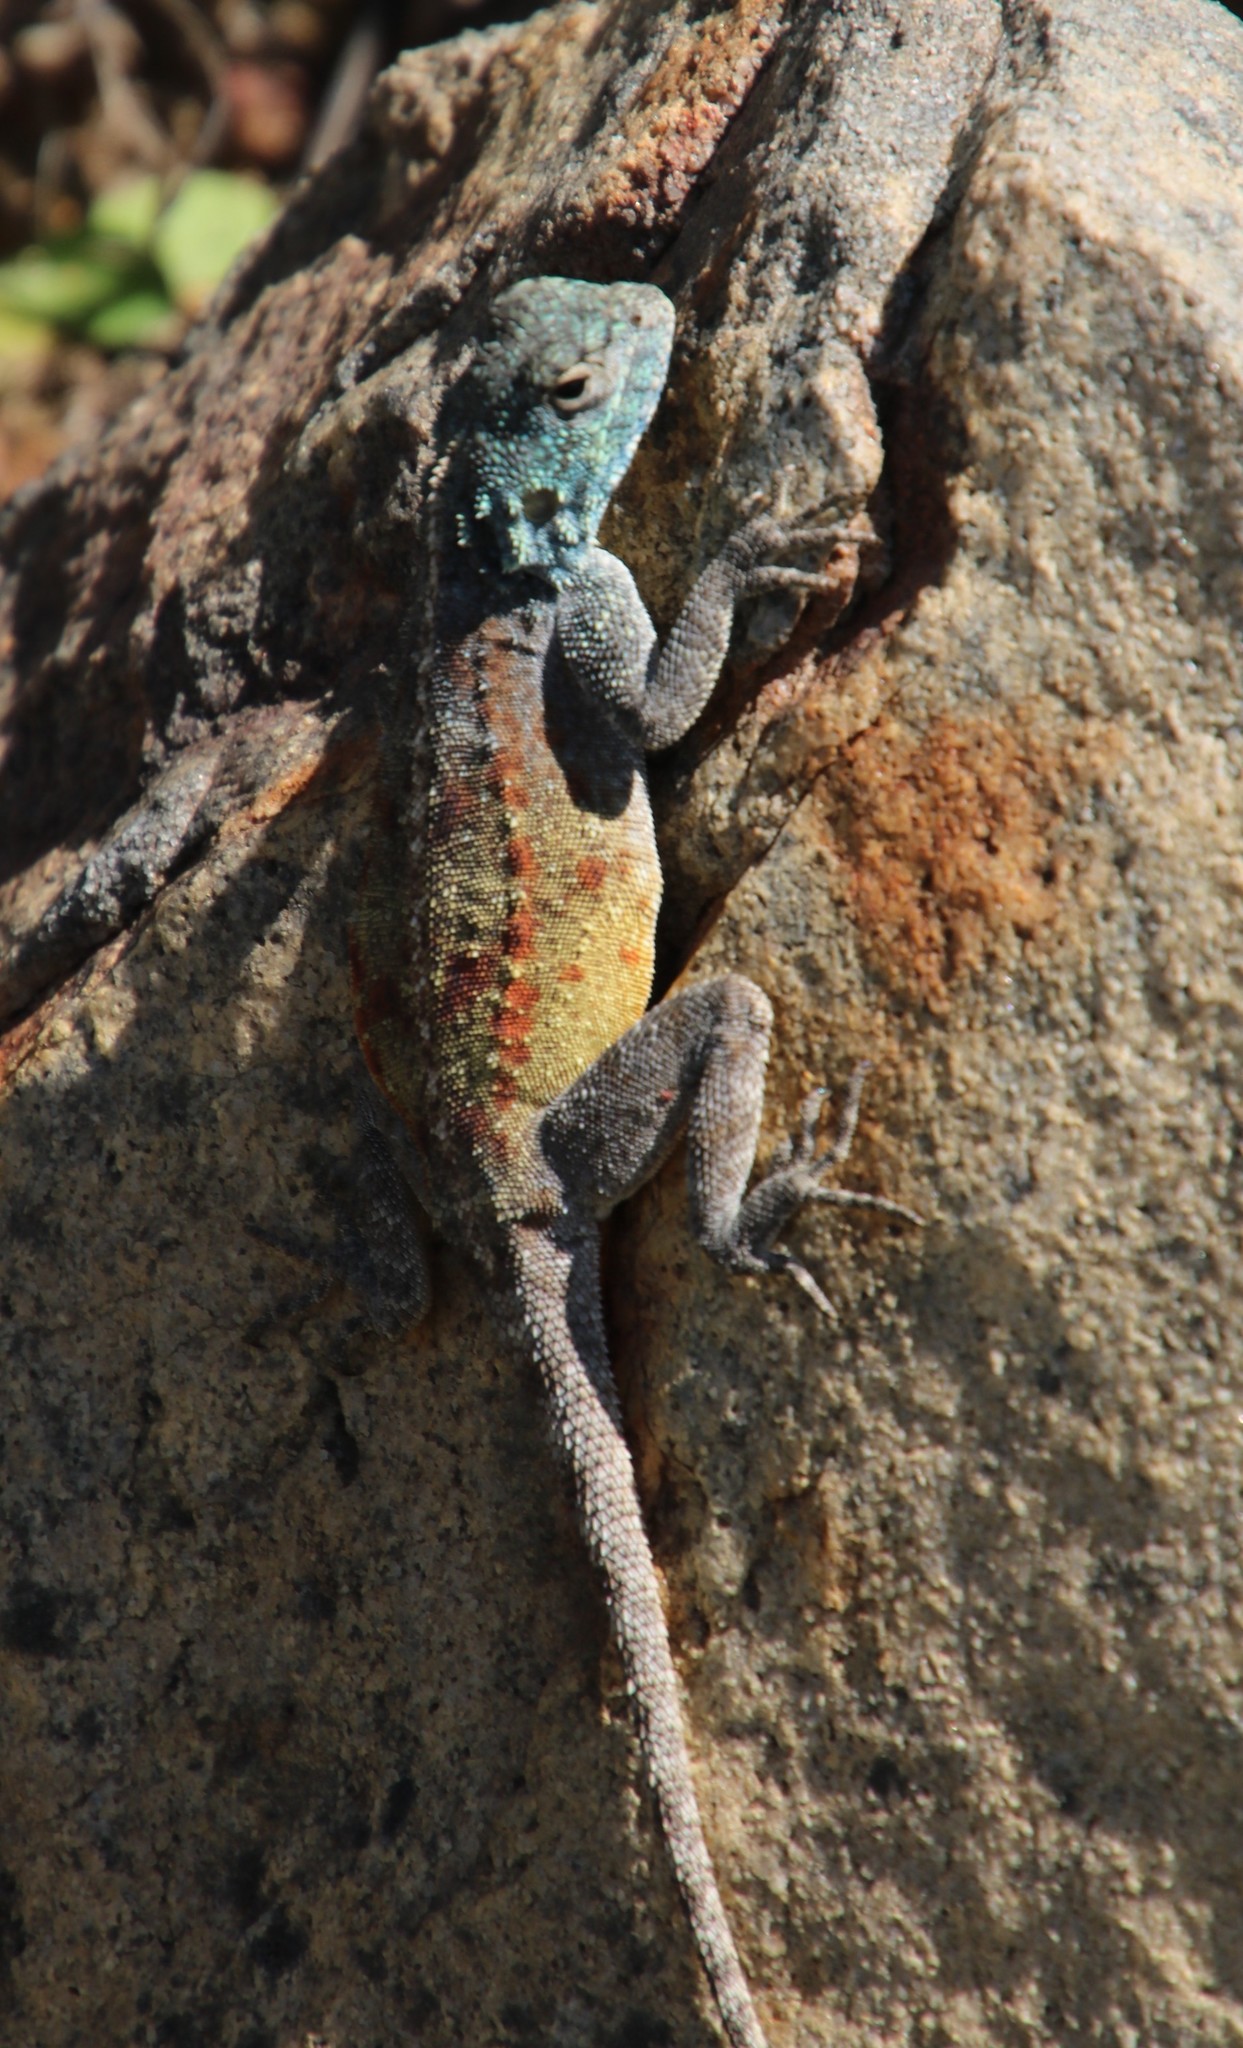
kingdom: Animalia
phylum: Chordata
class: Squamata
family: Agamidae
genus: Agama
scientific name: Agama atra
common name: Southern african rock agama
